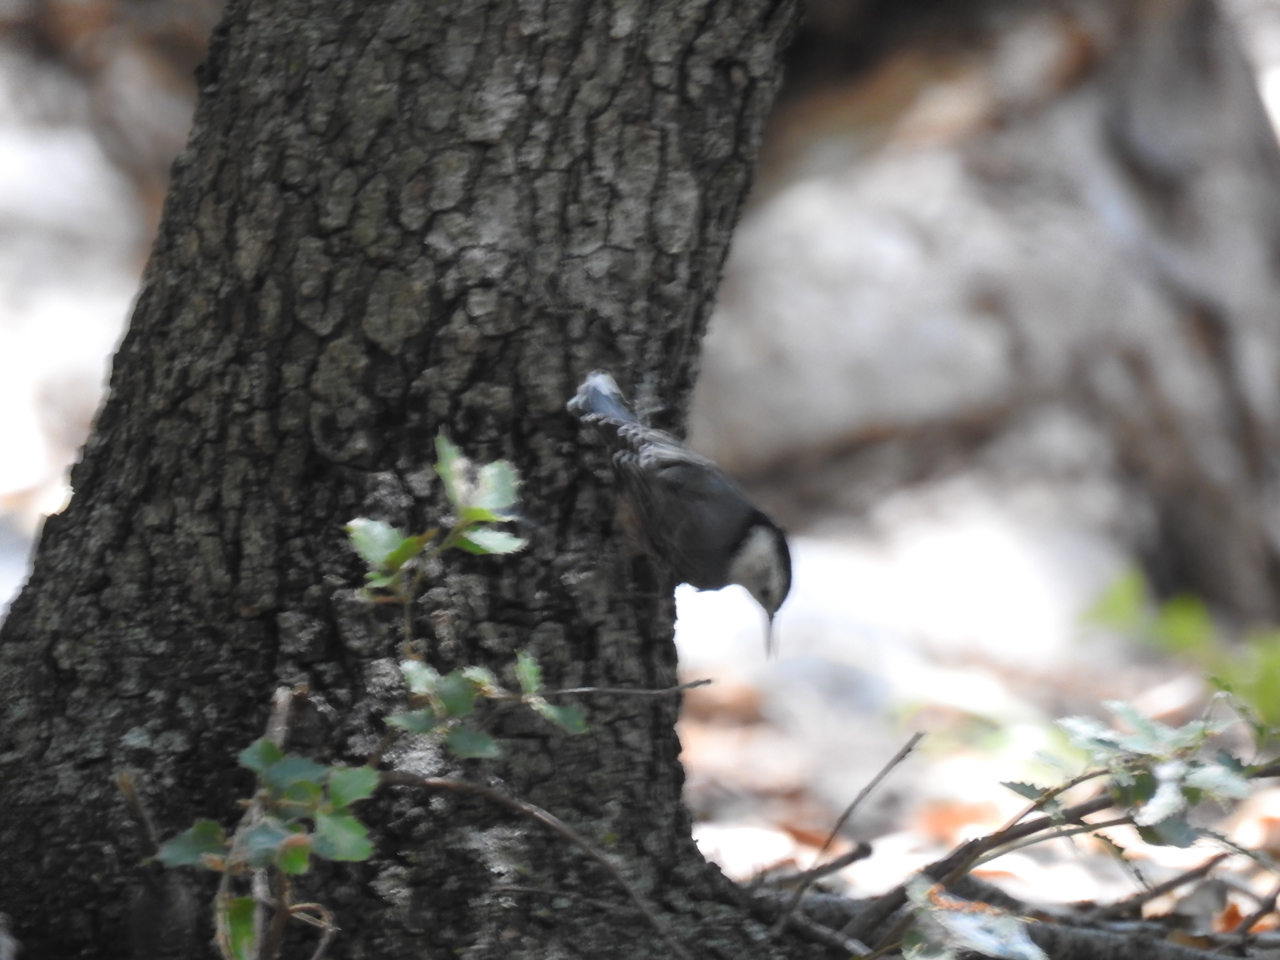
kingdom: Animalia
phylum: Chordata
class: Aves
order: Passeriformes
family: Sittidae
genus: Sitta
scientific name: Sitta carolinensis
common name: White-breasted nuthatch
